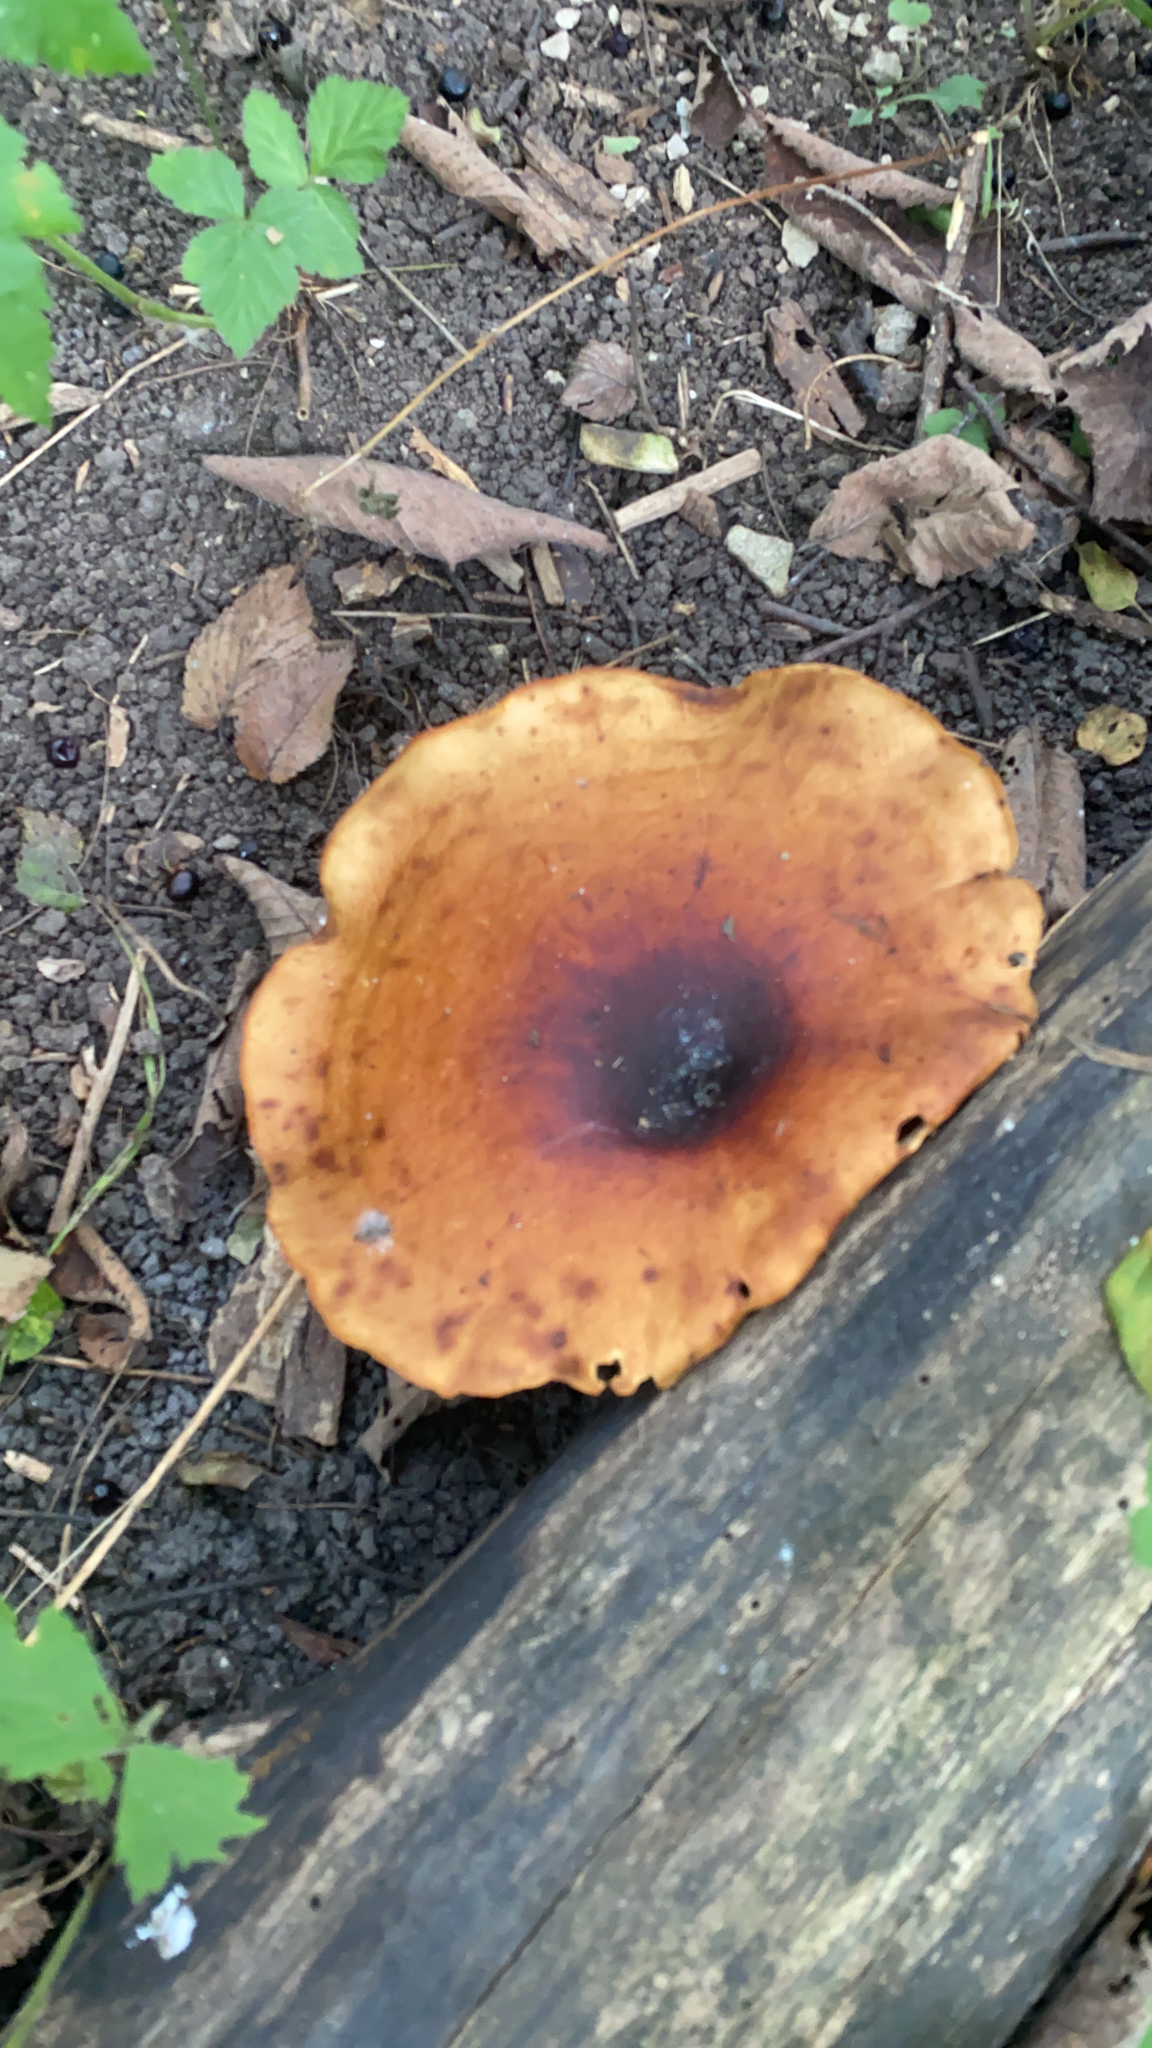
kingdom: Fungi
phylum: Basidiomycota
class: Agaricomycetes
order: Polyporales
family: Polyporaceae
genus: Picipes
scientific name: Picipes badius
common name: Bay polypore
